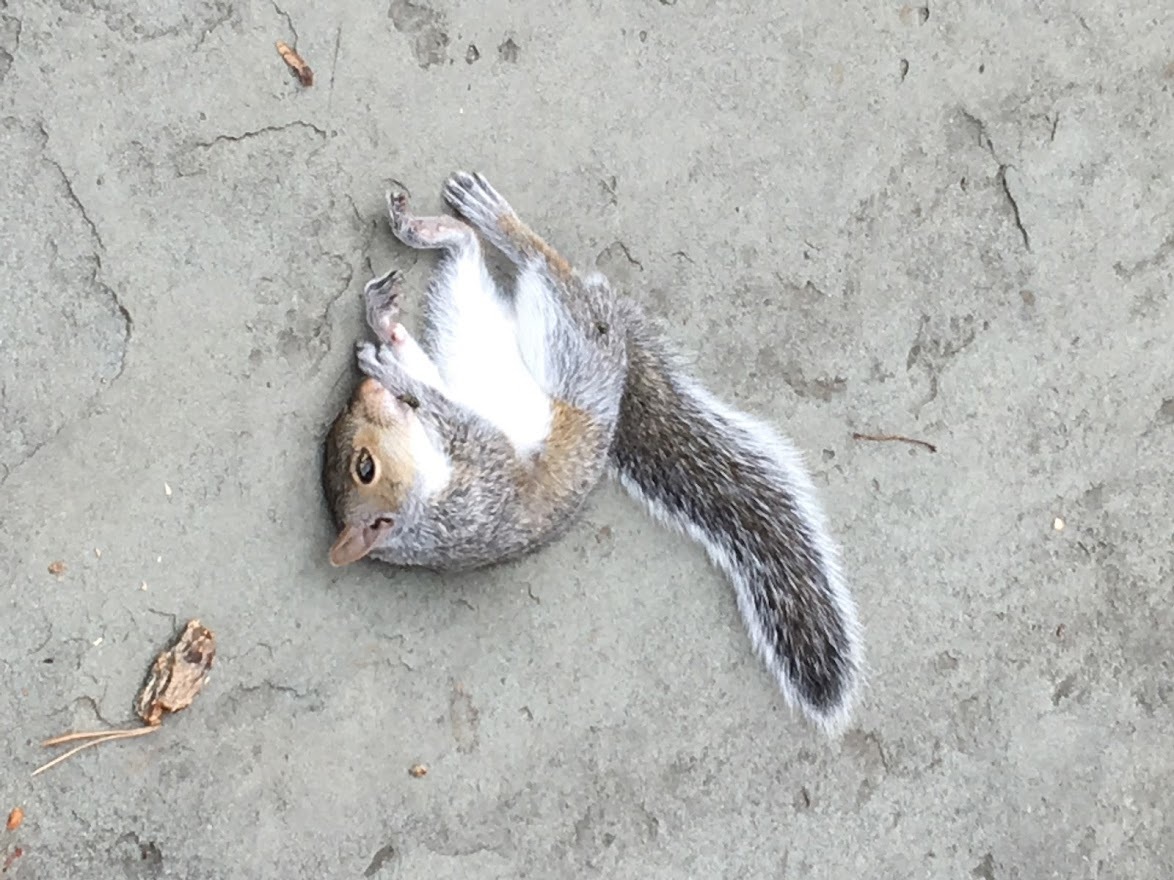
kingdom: Animalia
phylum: Chordata
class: Mammalia
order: Rodentia
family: Sciuridae
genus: Sciurus
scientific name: Sciurus carolinensis
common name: Eastern gray squirrel
